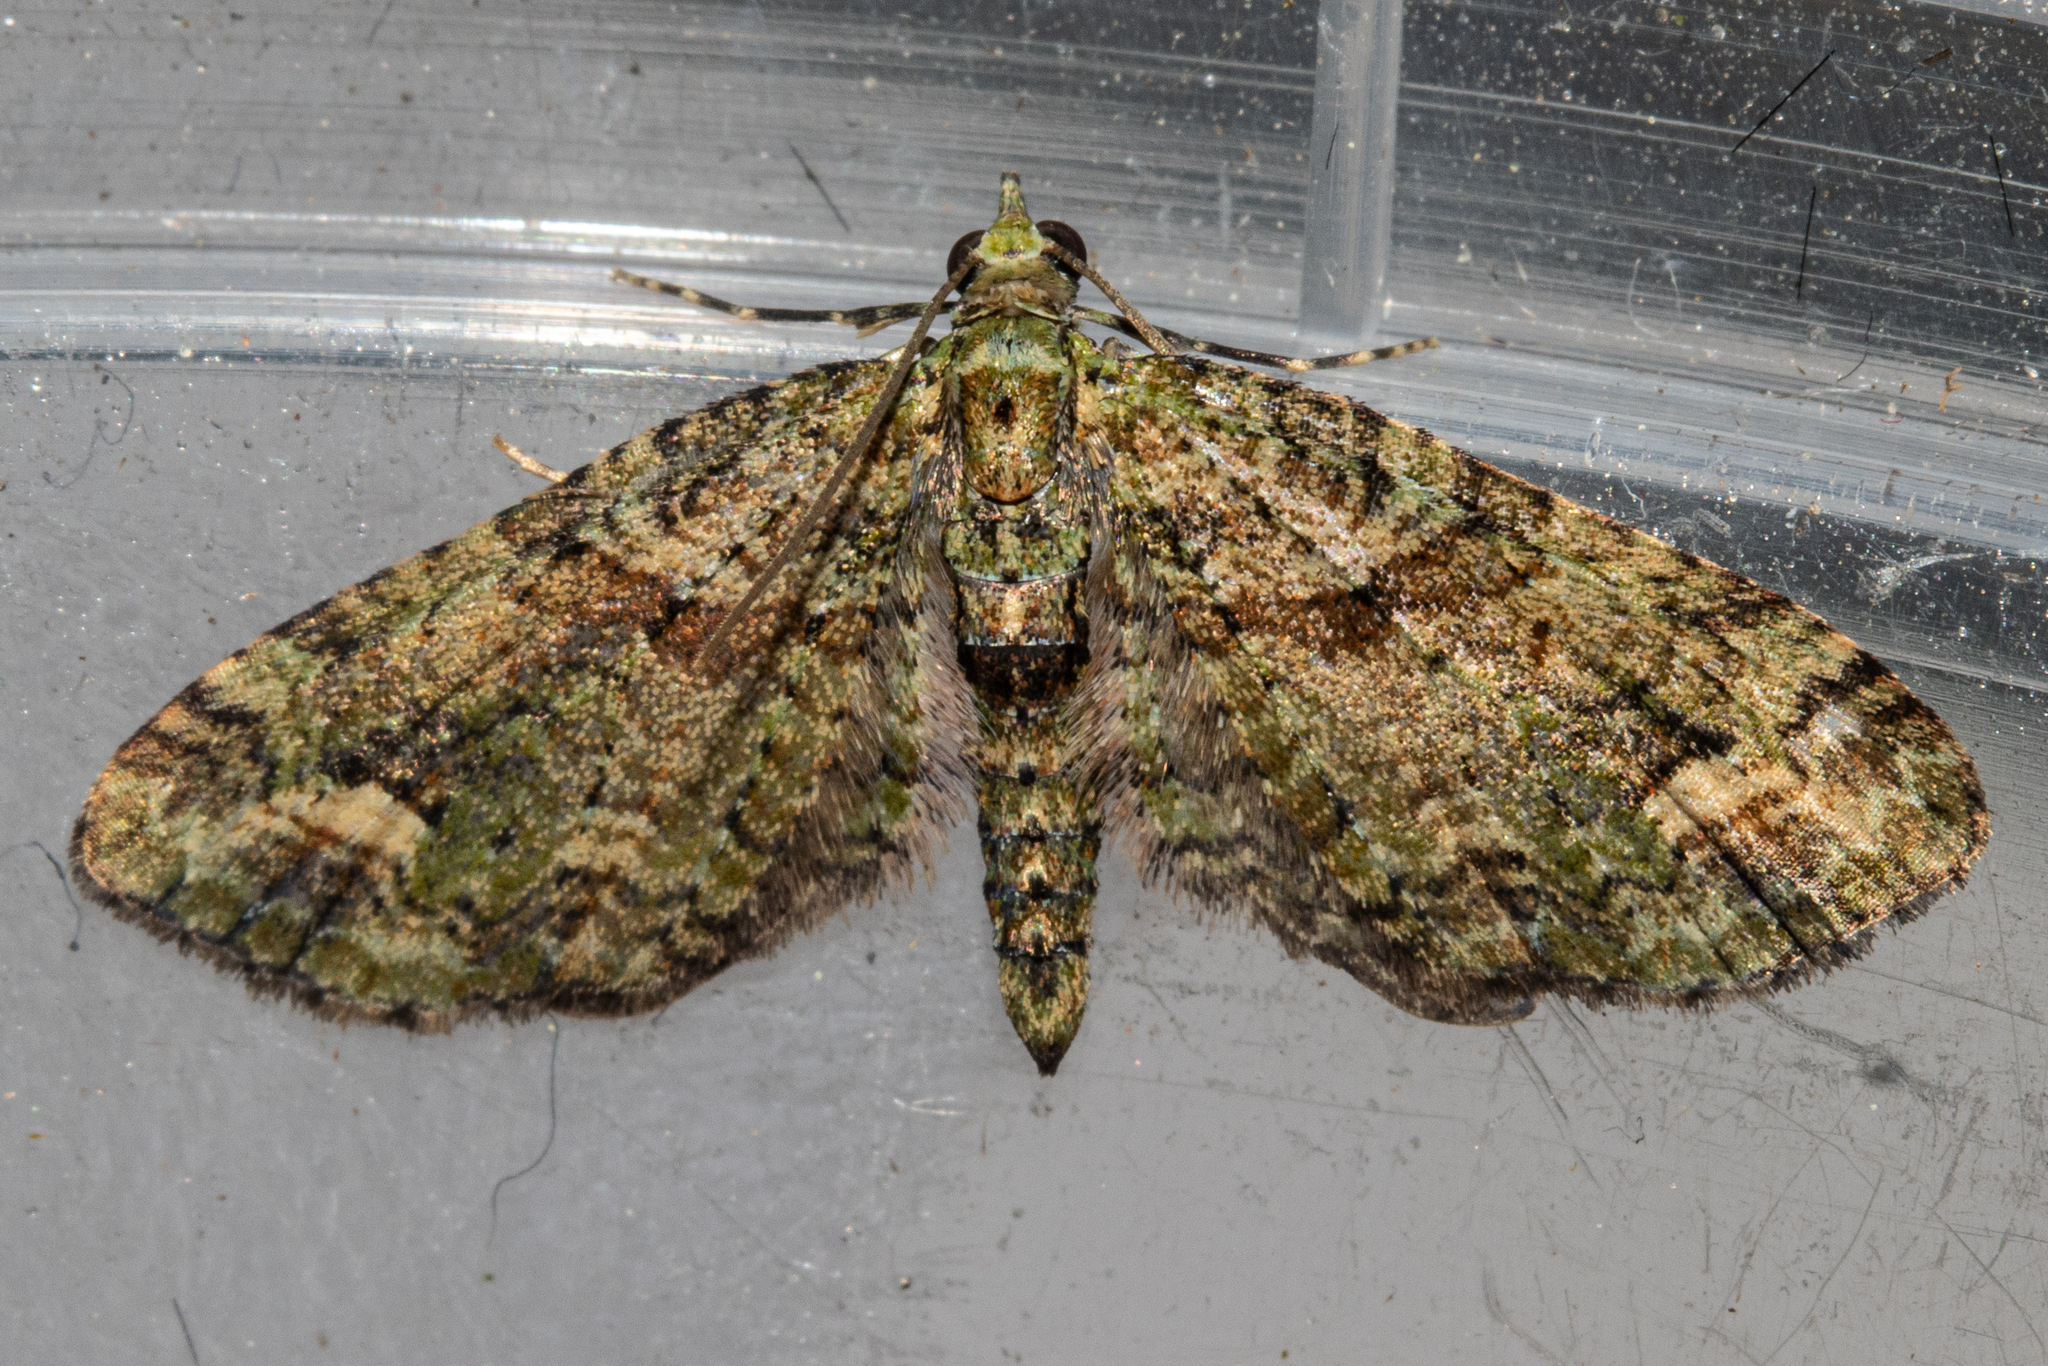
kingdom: Animalia
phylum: Arthropoda
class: Insecta
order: Lepidoptera
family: Geometridae
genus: Idaea
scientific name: Idaea mutanda
